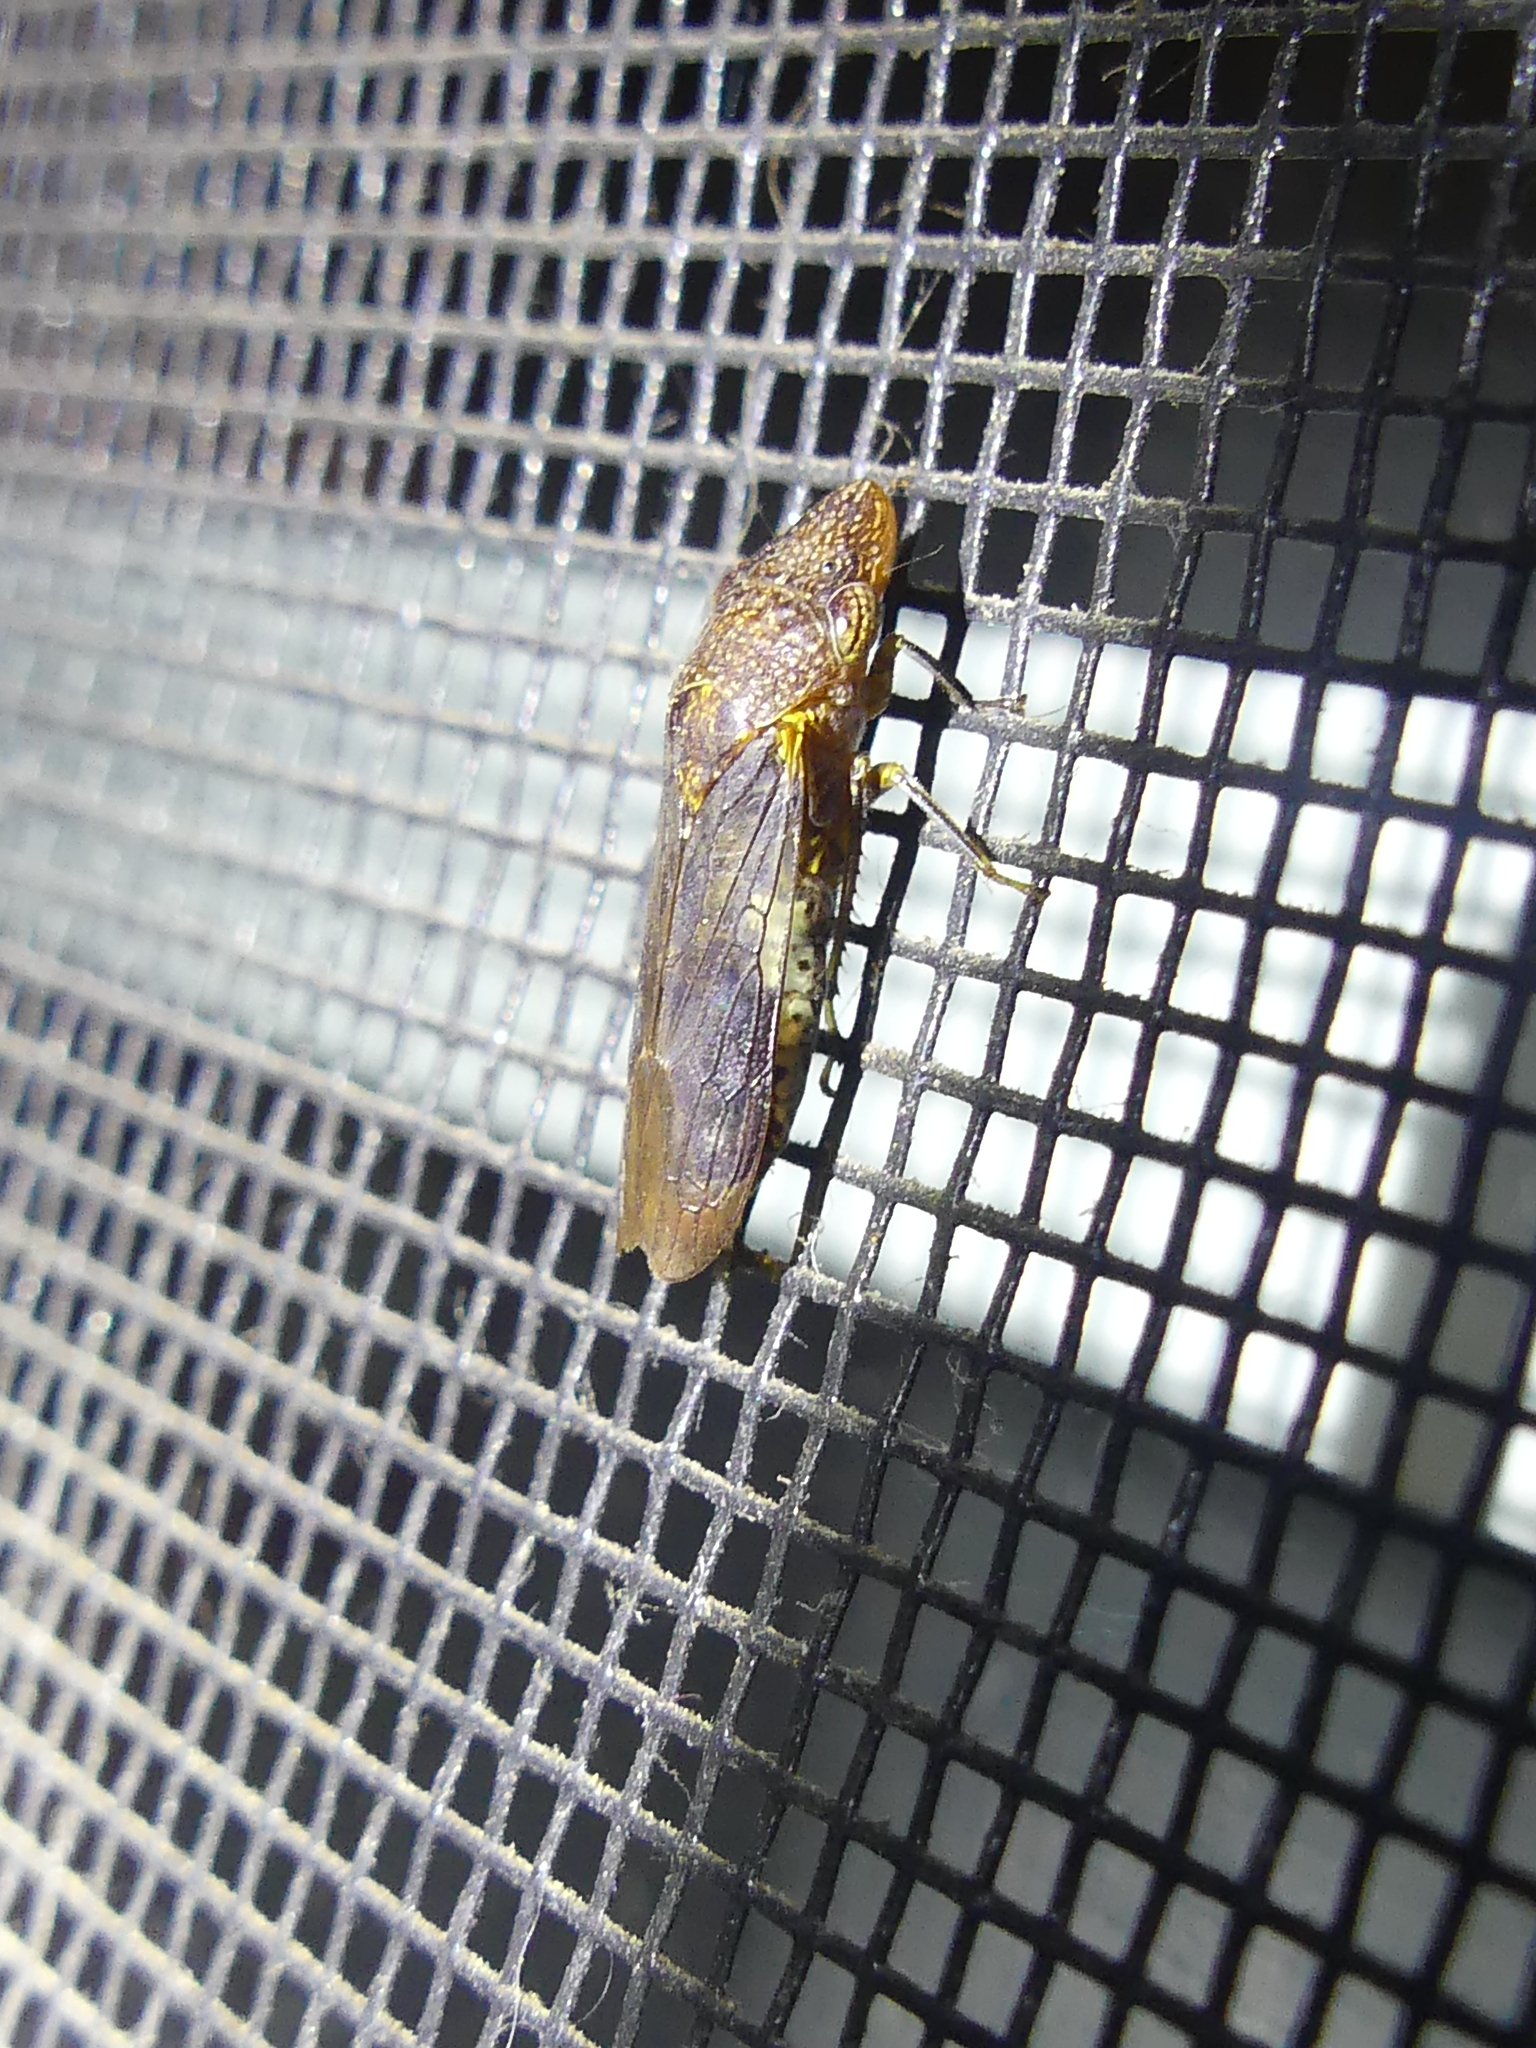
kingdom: Animalia
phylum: Arthropoda
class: Insecta
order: Hemiptera
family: Cicadellidae
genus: Homalodisca
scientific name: Homalodisca vitripennis
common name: Glassy-winged sharpshooter
